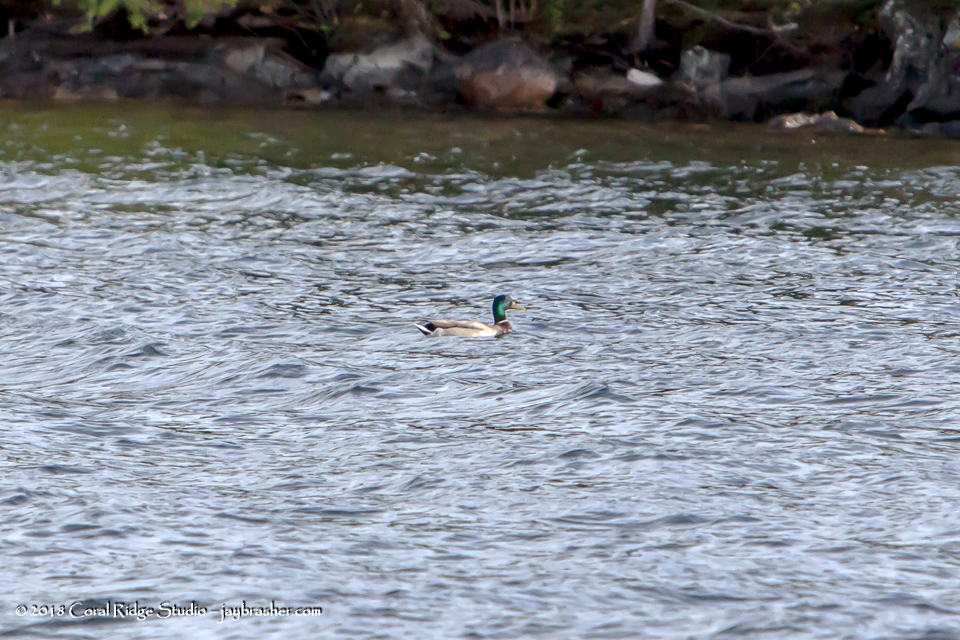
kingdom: Animalia
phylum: Chordata
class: Aves
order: Anseriformes
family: Anatidae
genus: Anas
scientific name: Anas platyrhynchos
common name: Mallard
